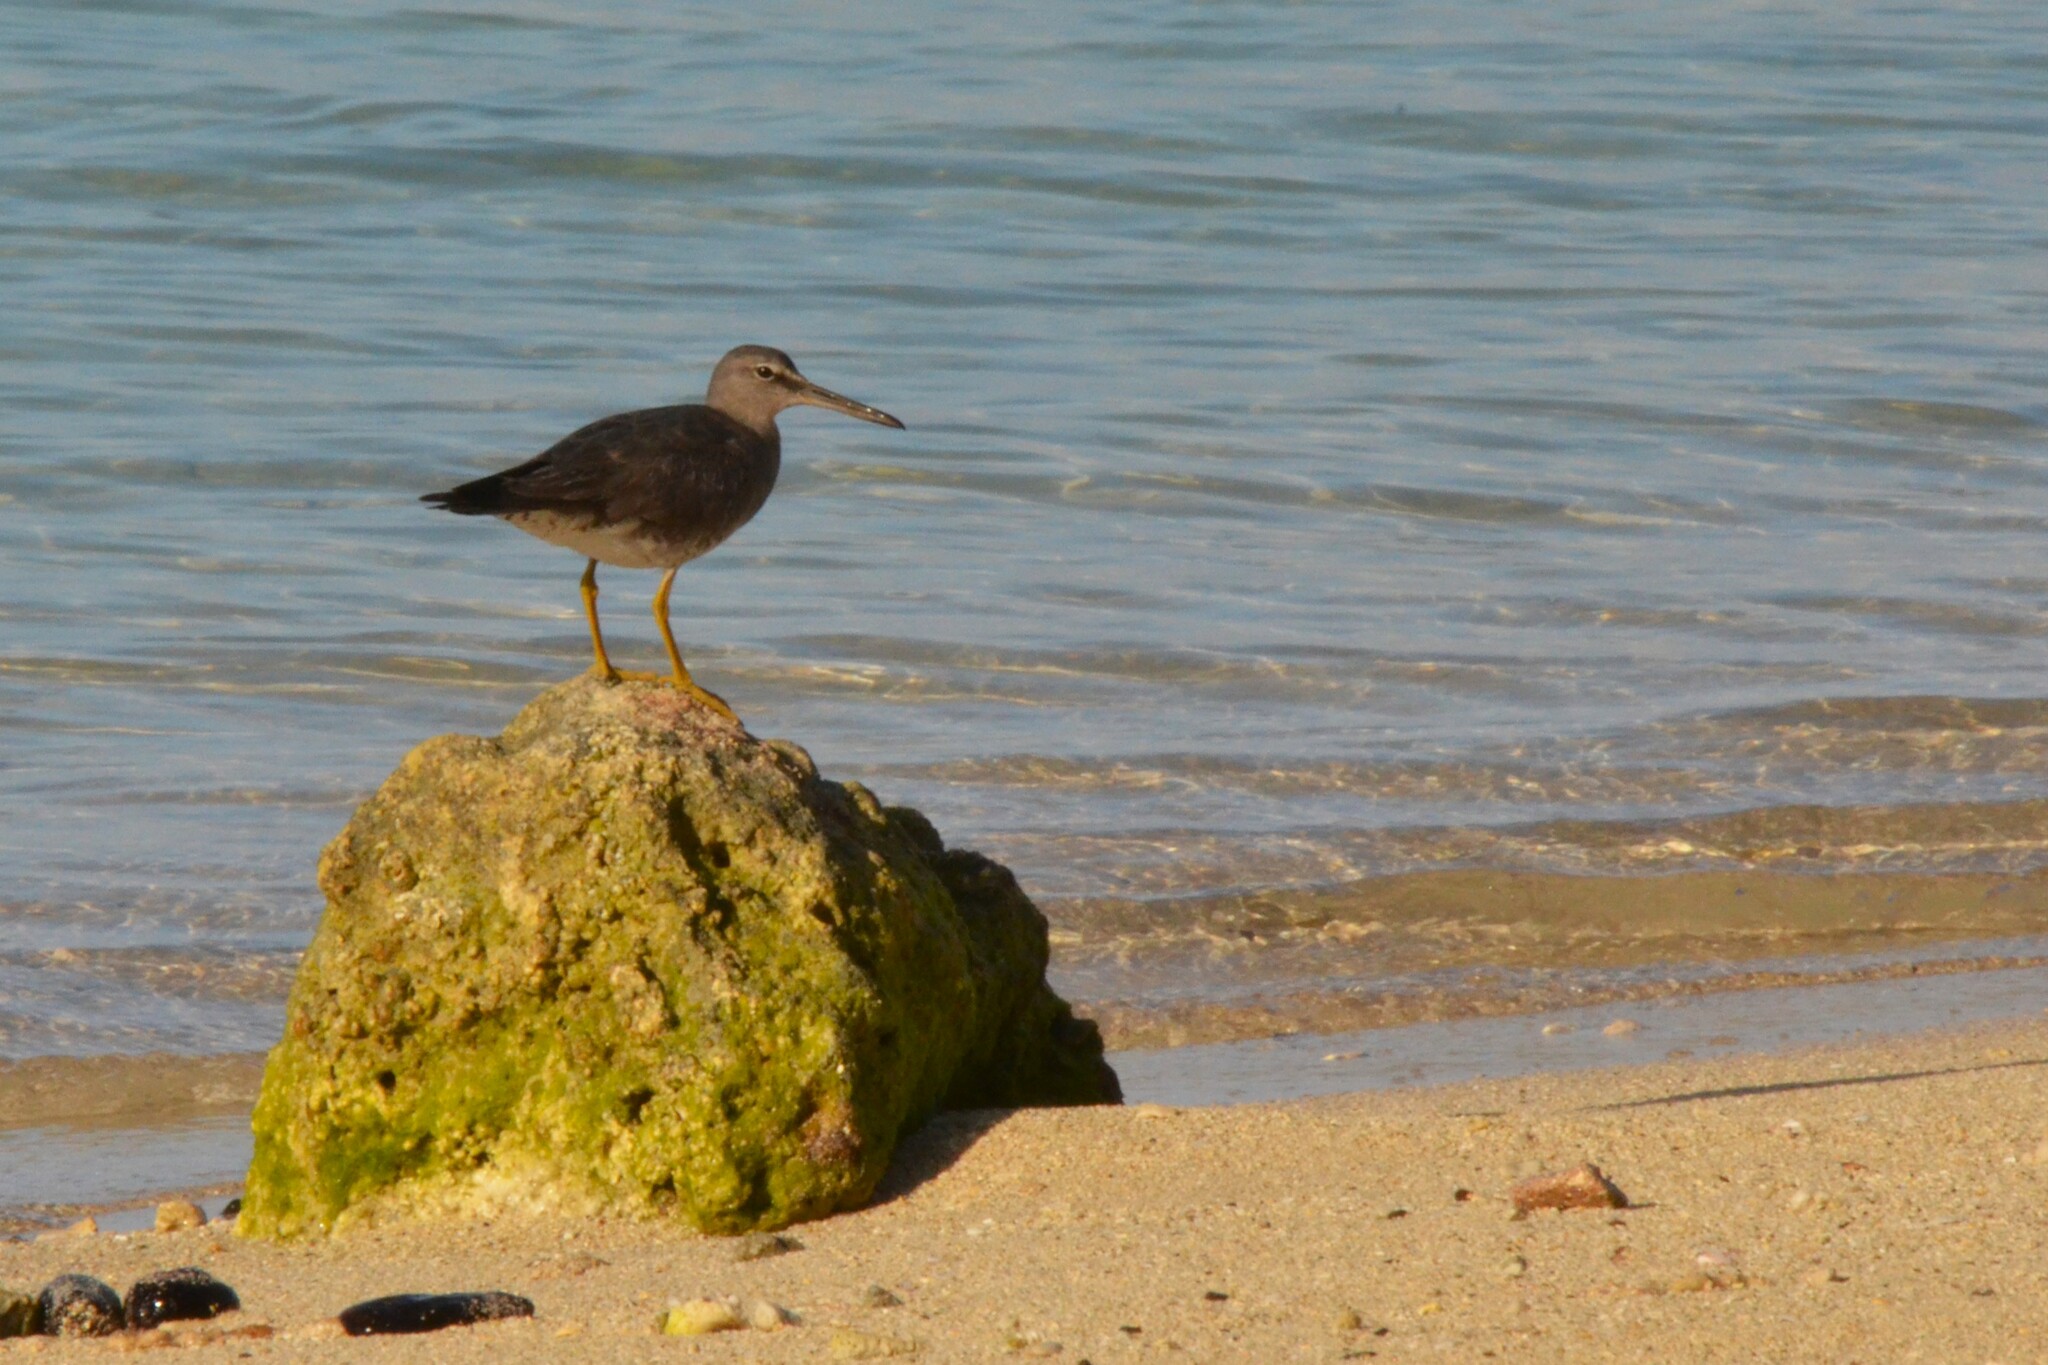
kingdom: Animalia
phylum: Chordata
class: Aves
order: Charadriiformes
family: Scolopacidae
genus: Tringa
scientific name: Tringa incana
